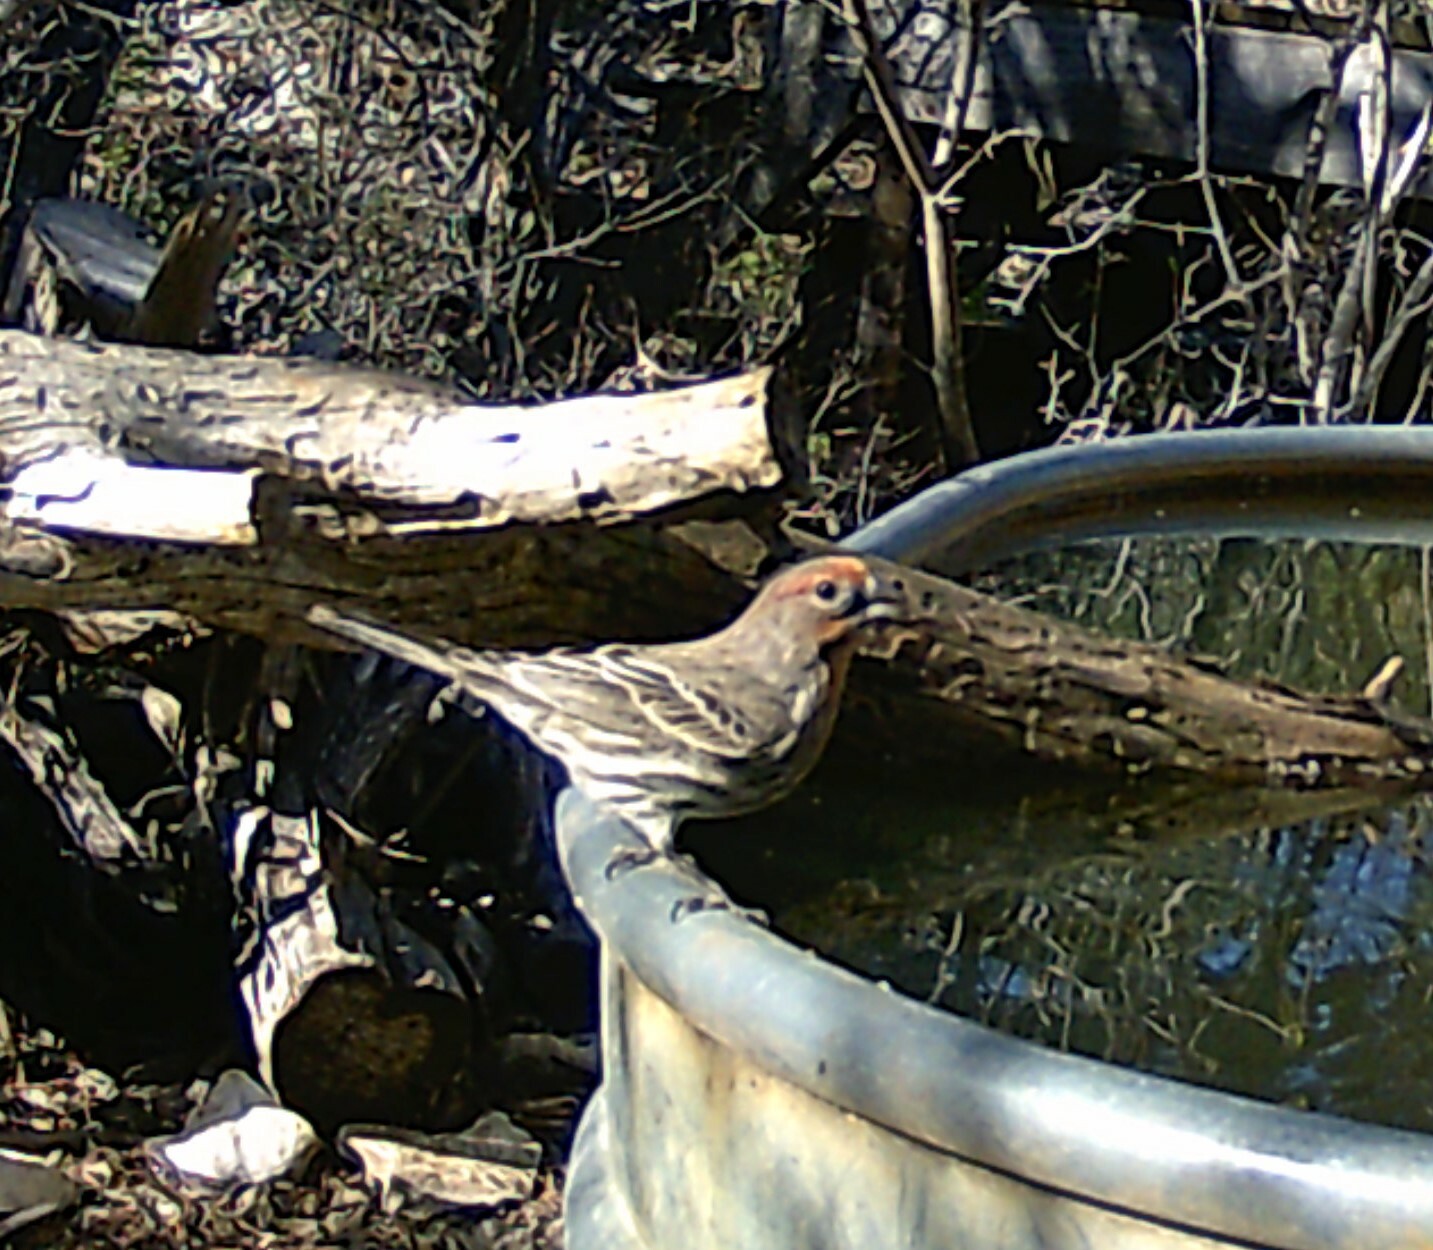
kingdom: Animalia
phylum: Chordata
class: Aves
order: Passeriformes
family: Fringillidae
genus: Haemorhous
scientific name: Haemorhous mexicanus
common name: House finch
